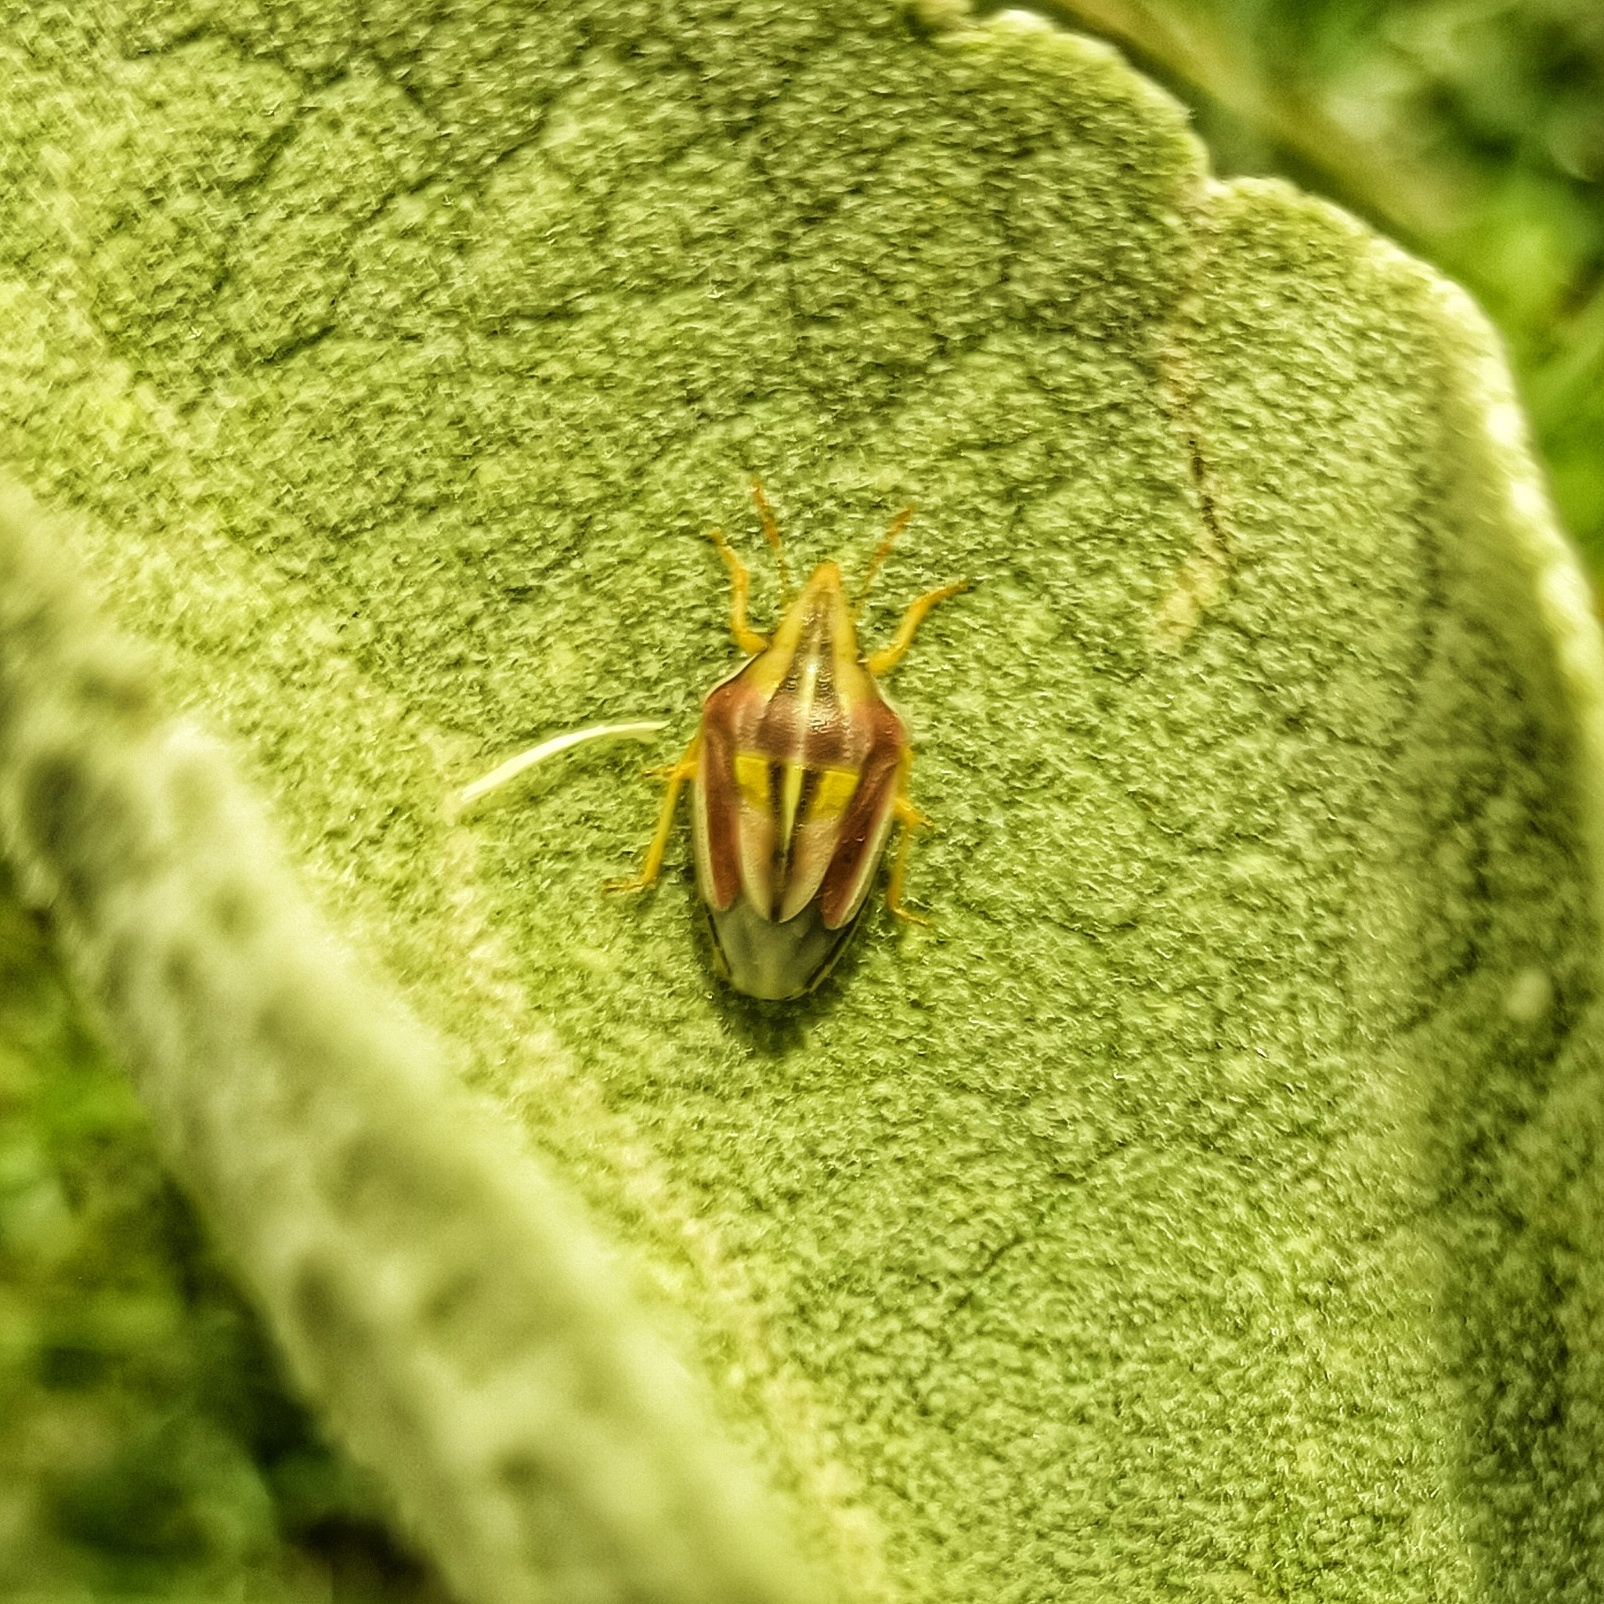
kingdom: Animalia
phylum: Arthropoda
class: Insecta
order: Hemiptera
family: Pentatomidae
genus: Aelia
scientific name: Aelia rostrata
